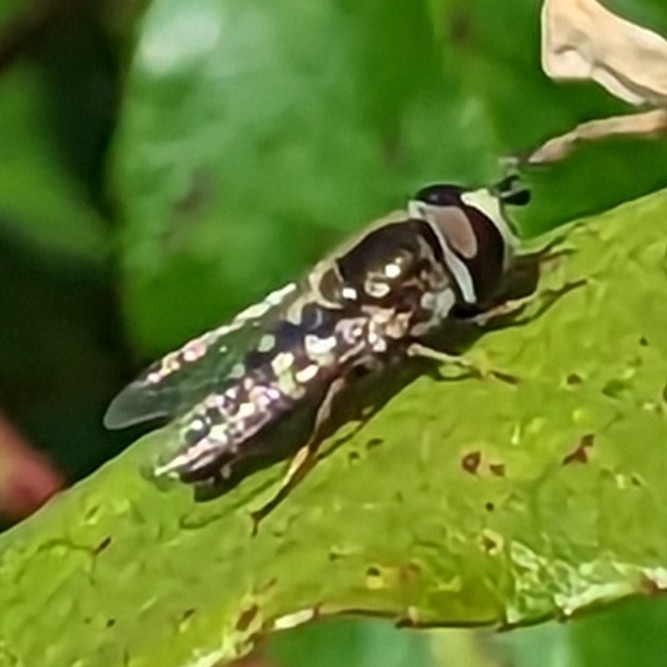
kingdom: Animalia
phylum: Arthropoda
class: Insecta
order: Diptera
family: Syrphidae
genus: Eupeodes
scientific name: Eupeodes volucris
